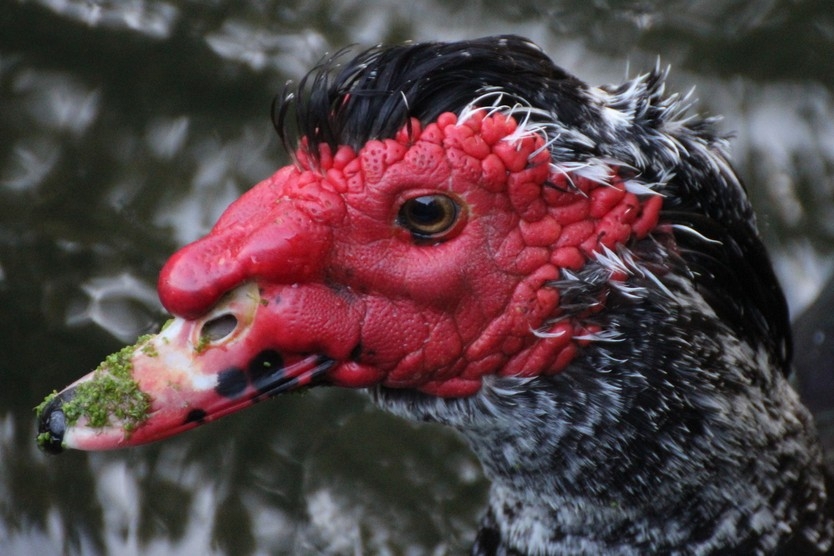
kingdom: Animalia
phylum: Chordata
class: Aves
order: Anseriformes
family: Anatidae
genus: Cairina
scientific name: Cairina moschata
